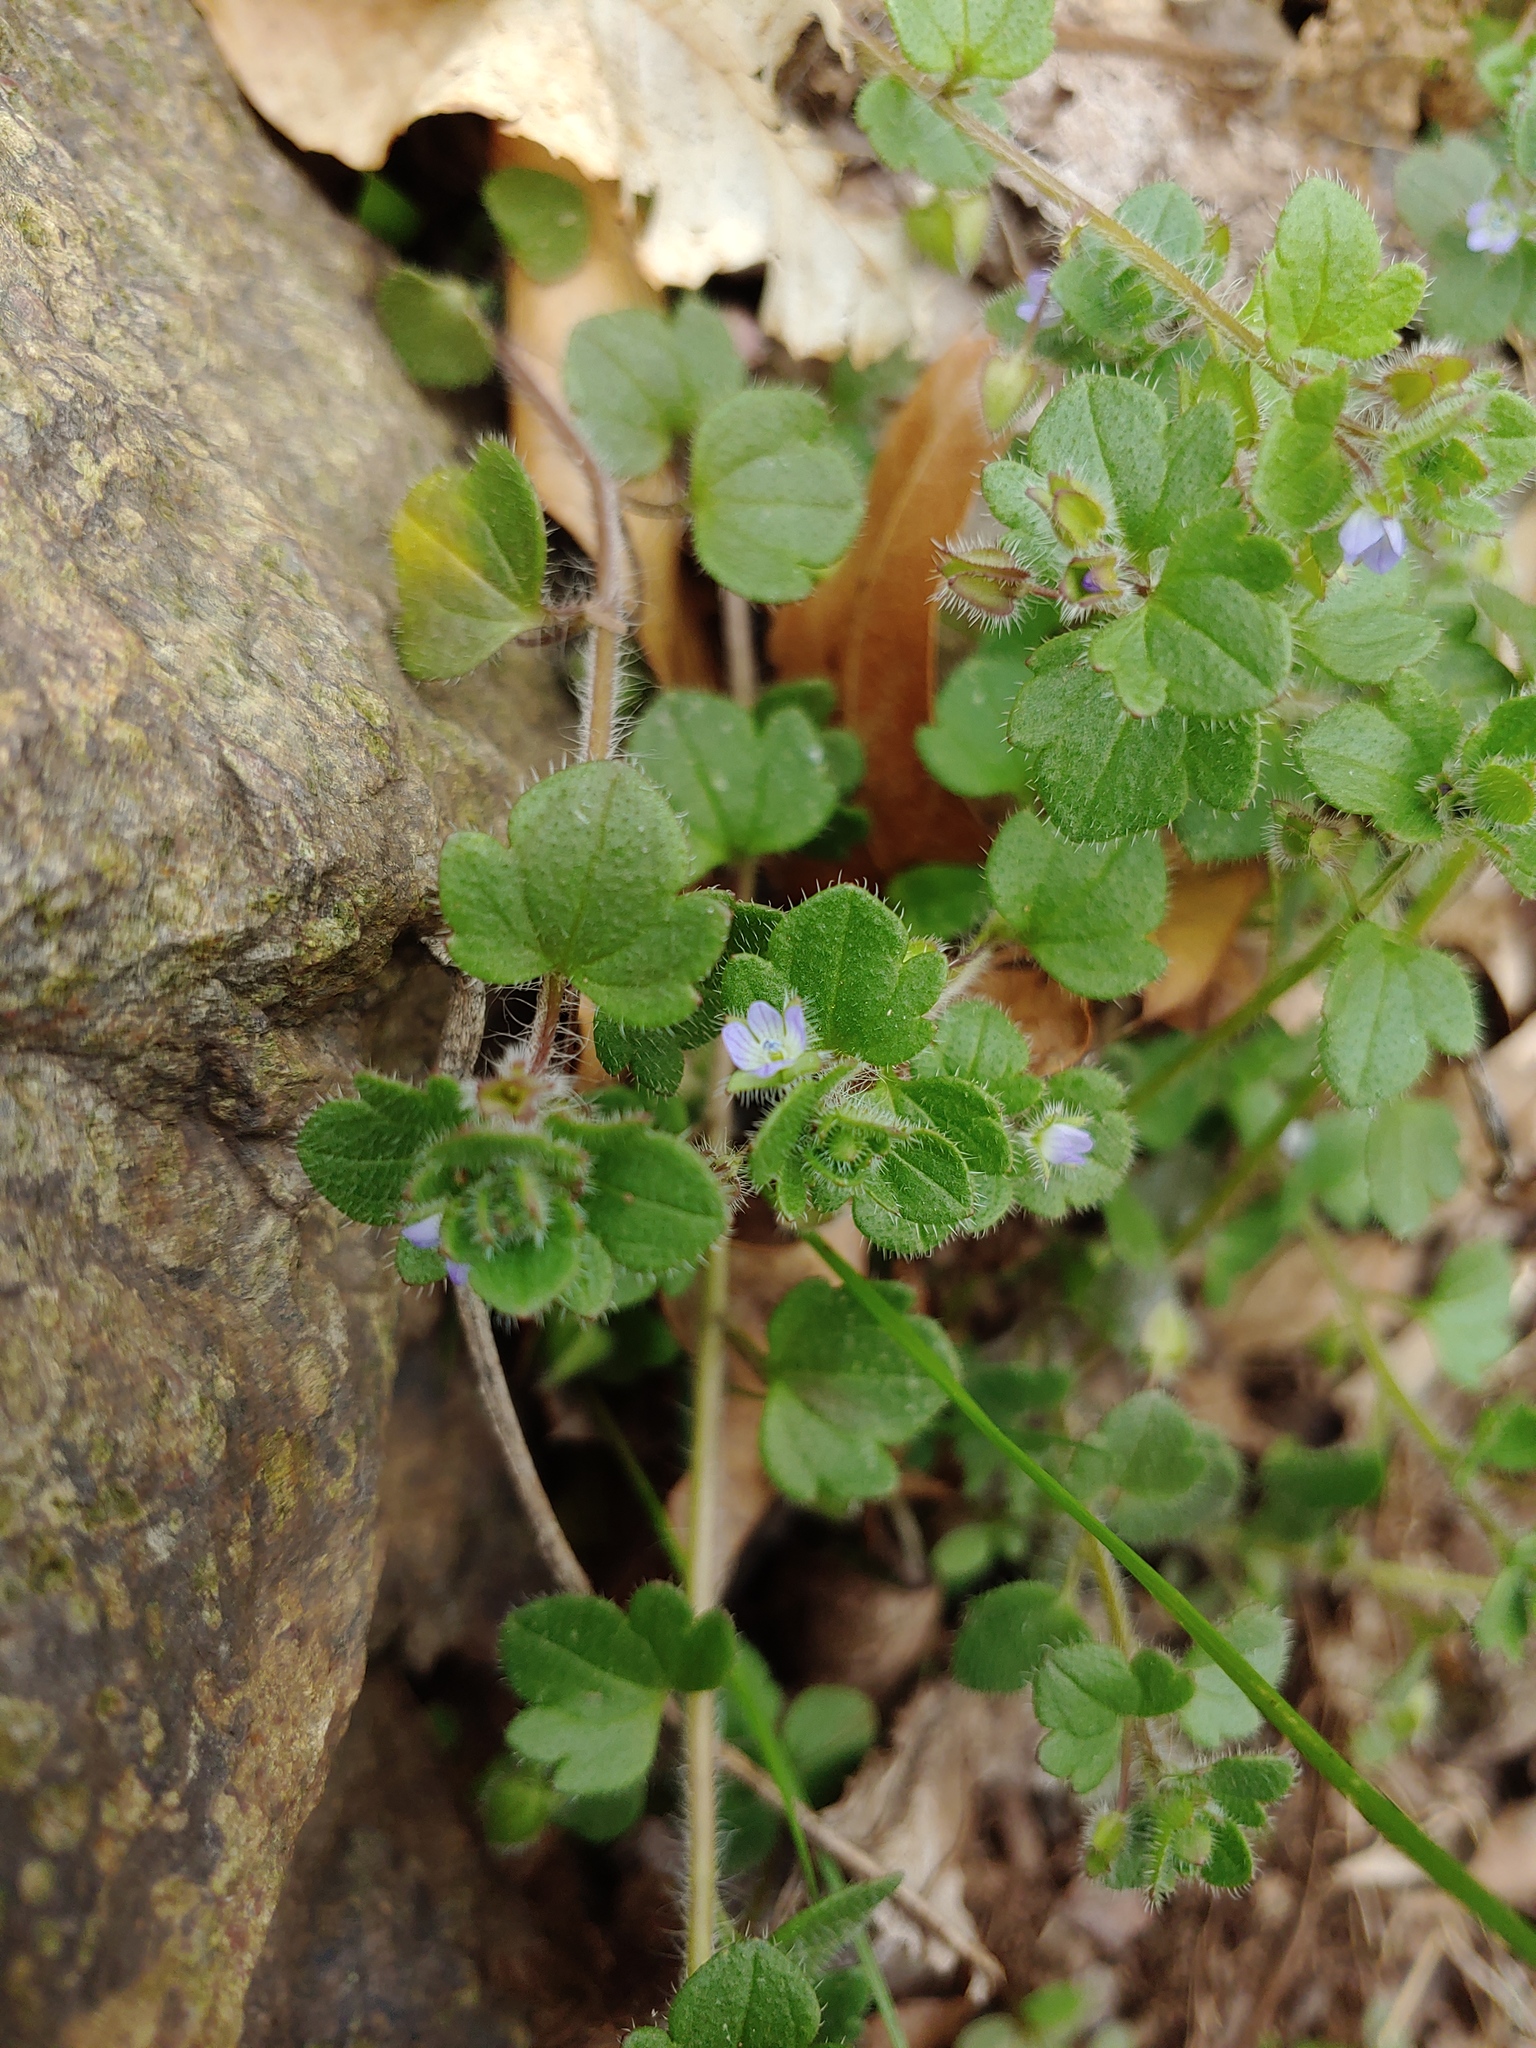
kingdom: Plantae
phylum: Tracheophyta
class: Magnoliopsida
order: Lamiales
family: Plantaginaceae
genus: Veronica
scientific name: Veronica hederifolia
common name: Ivy-leaved speedwell
